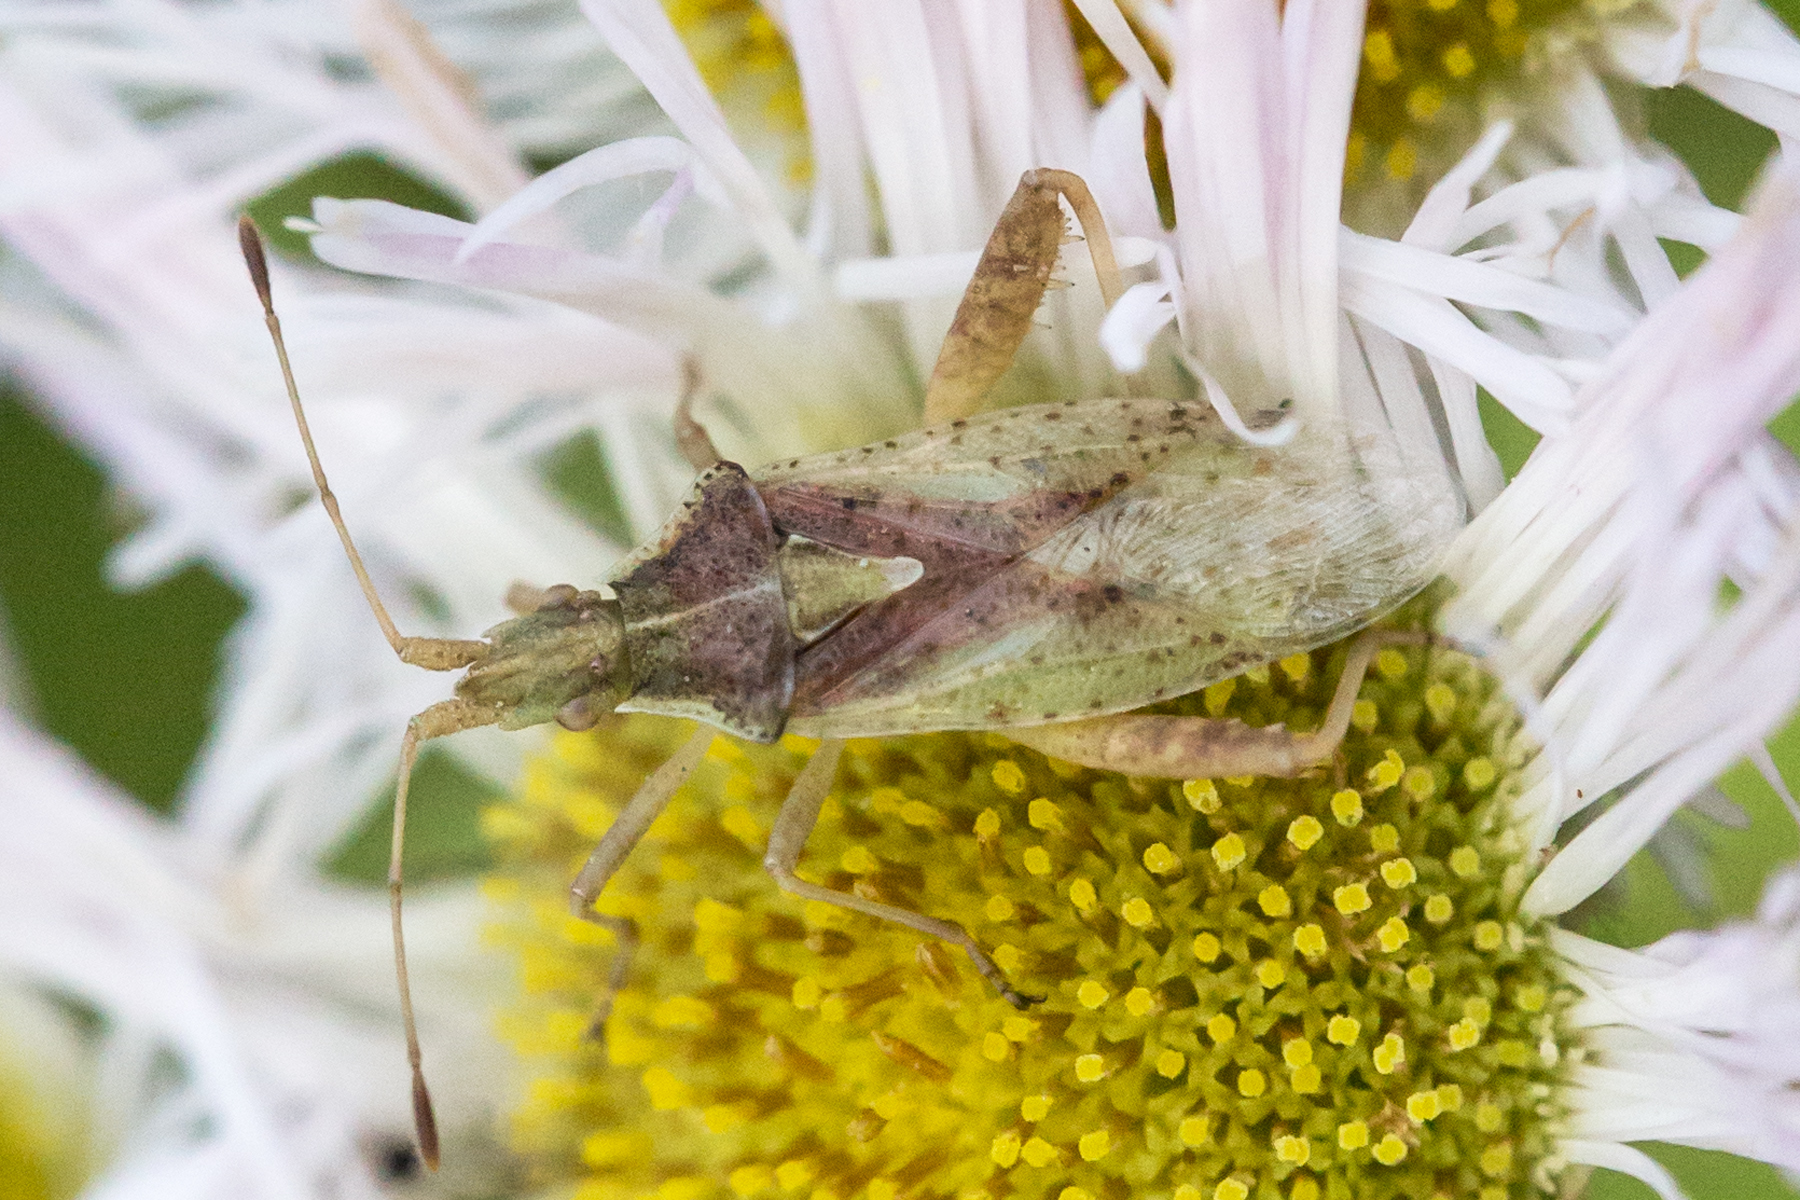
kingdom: Animalia
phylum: Arthropoda
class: Insecta
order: Hemiptera
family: Rhopalidae
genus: Harmostes
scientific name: Harmostes reflexulus
